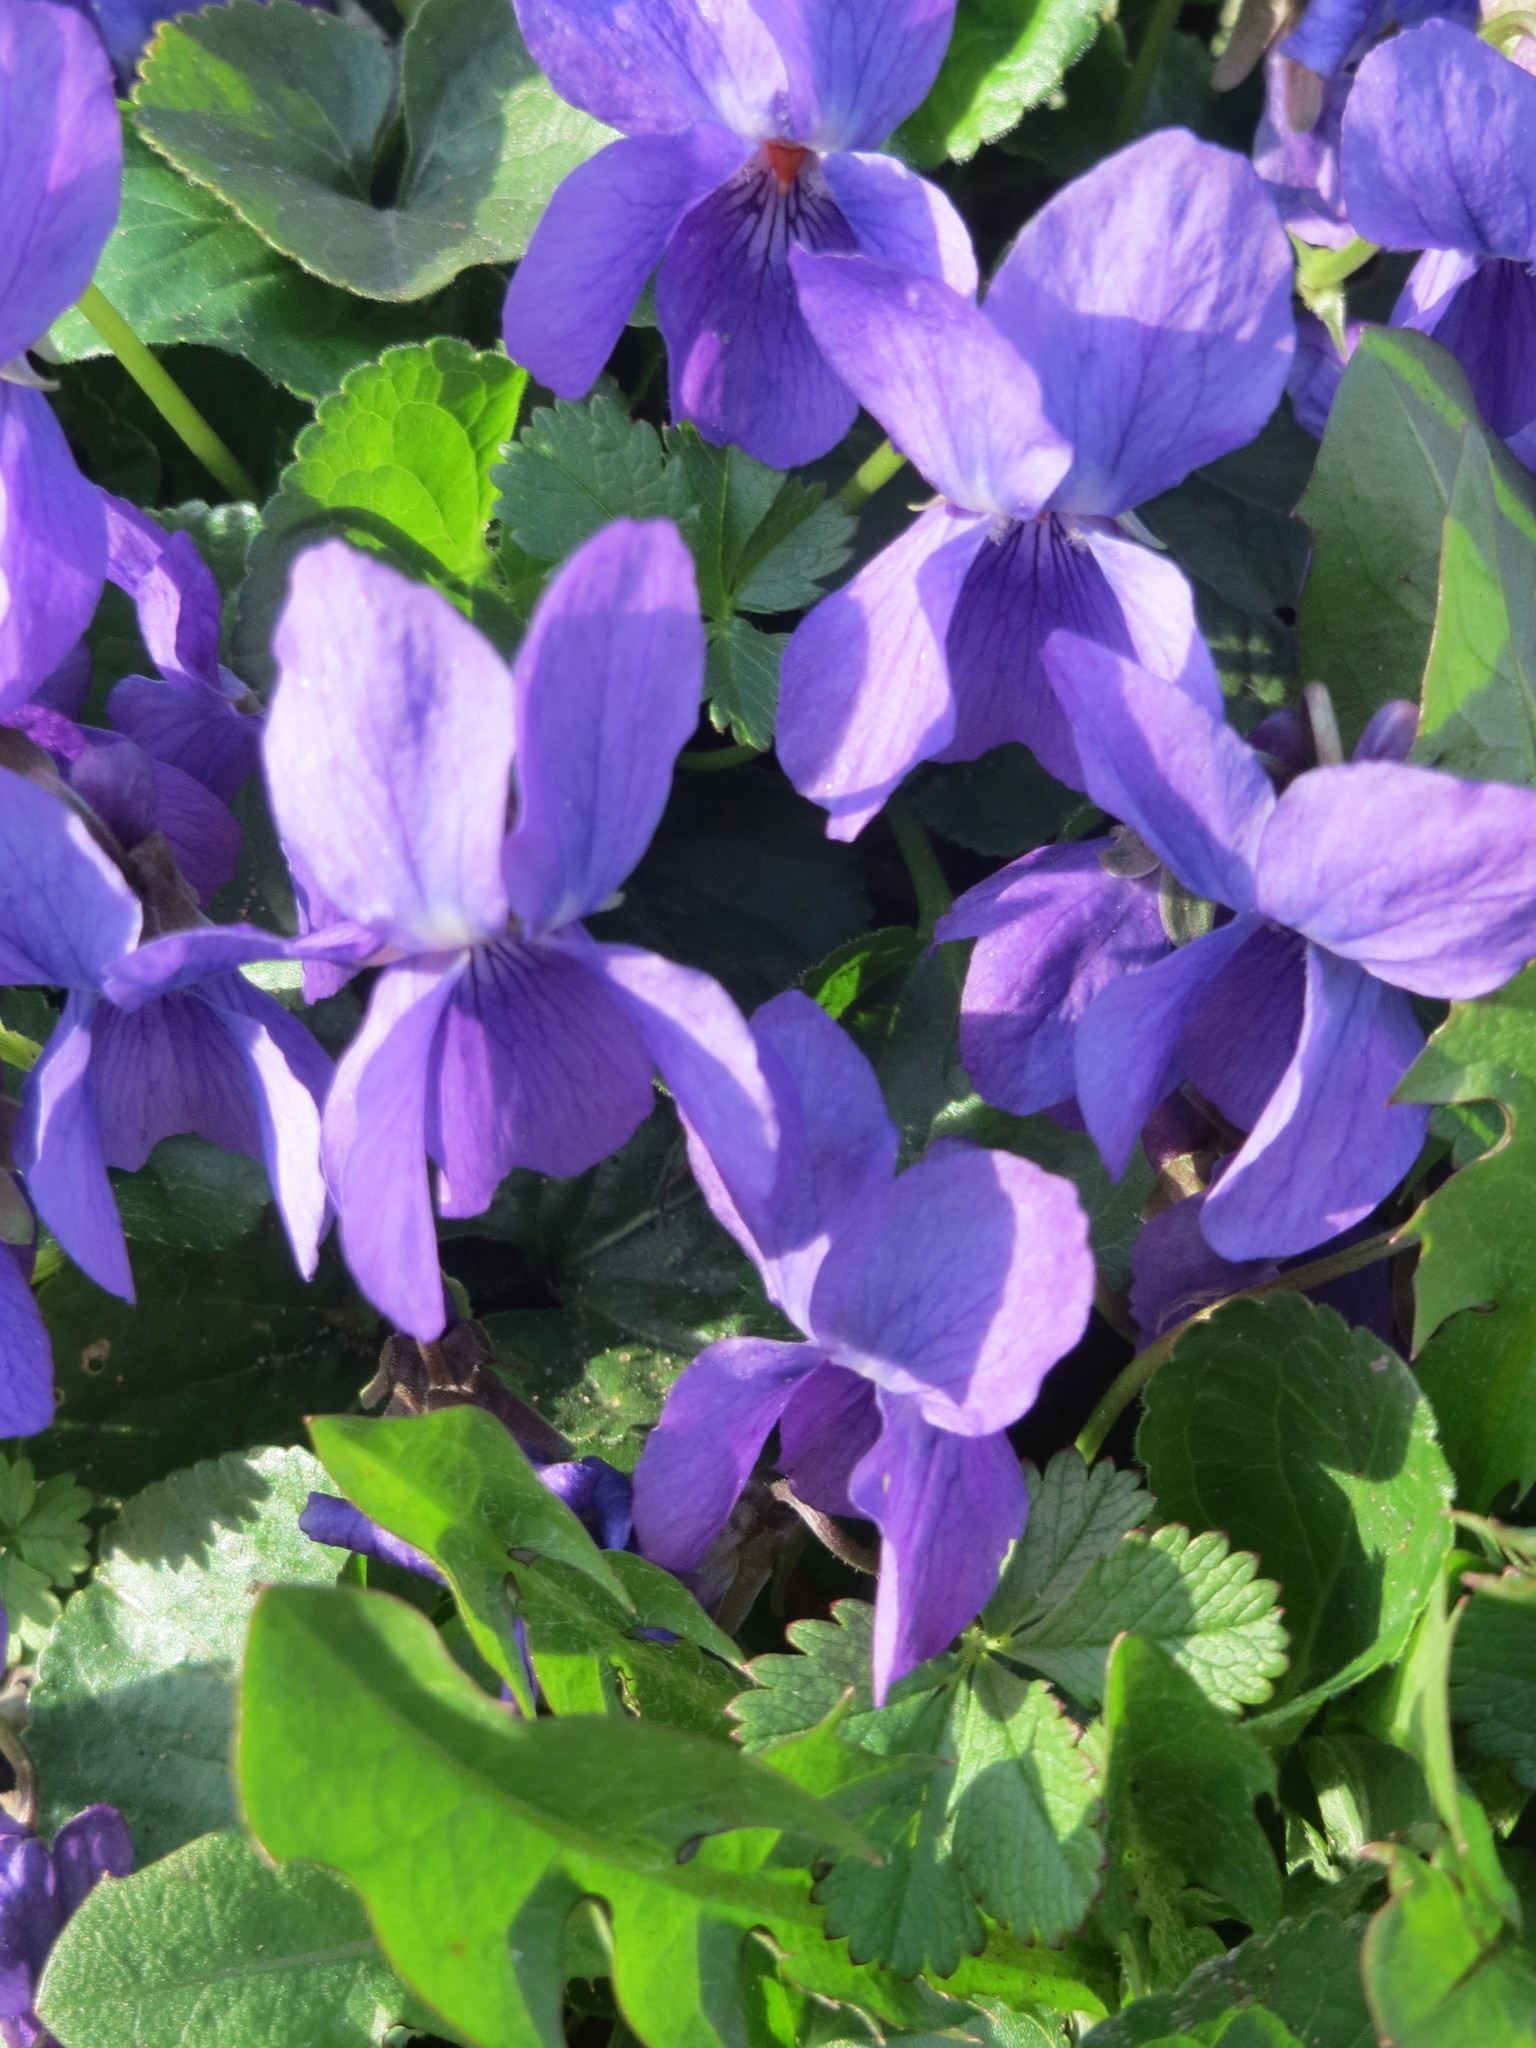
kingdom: Plantae
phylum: Tracheophyta
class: Magnoliopsida
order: Malpighiales
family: Violaceae
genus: Viola
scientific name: Viola odorata
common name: Sweet violet
